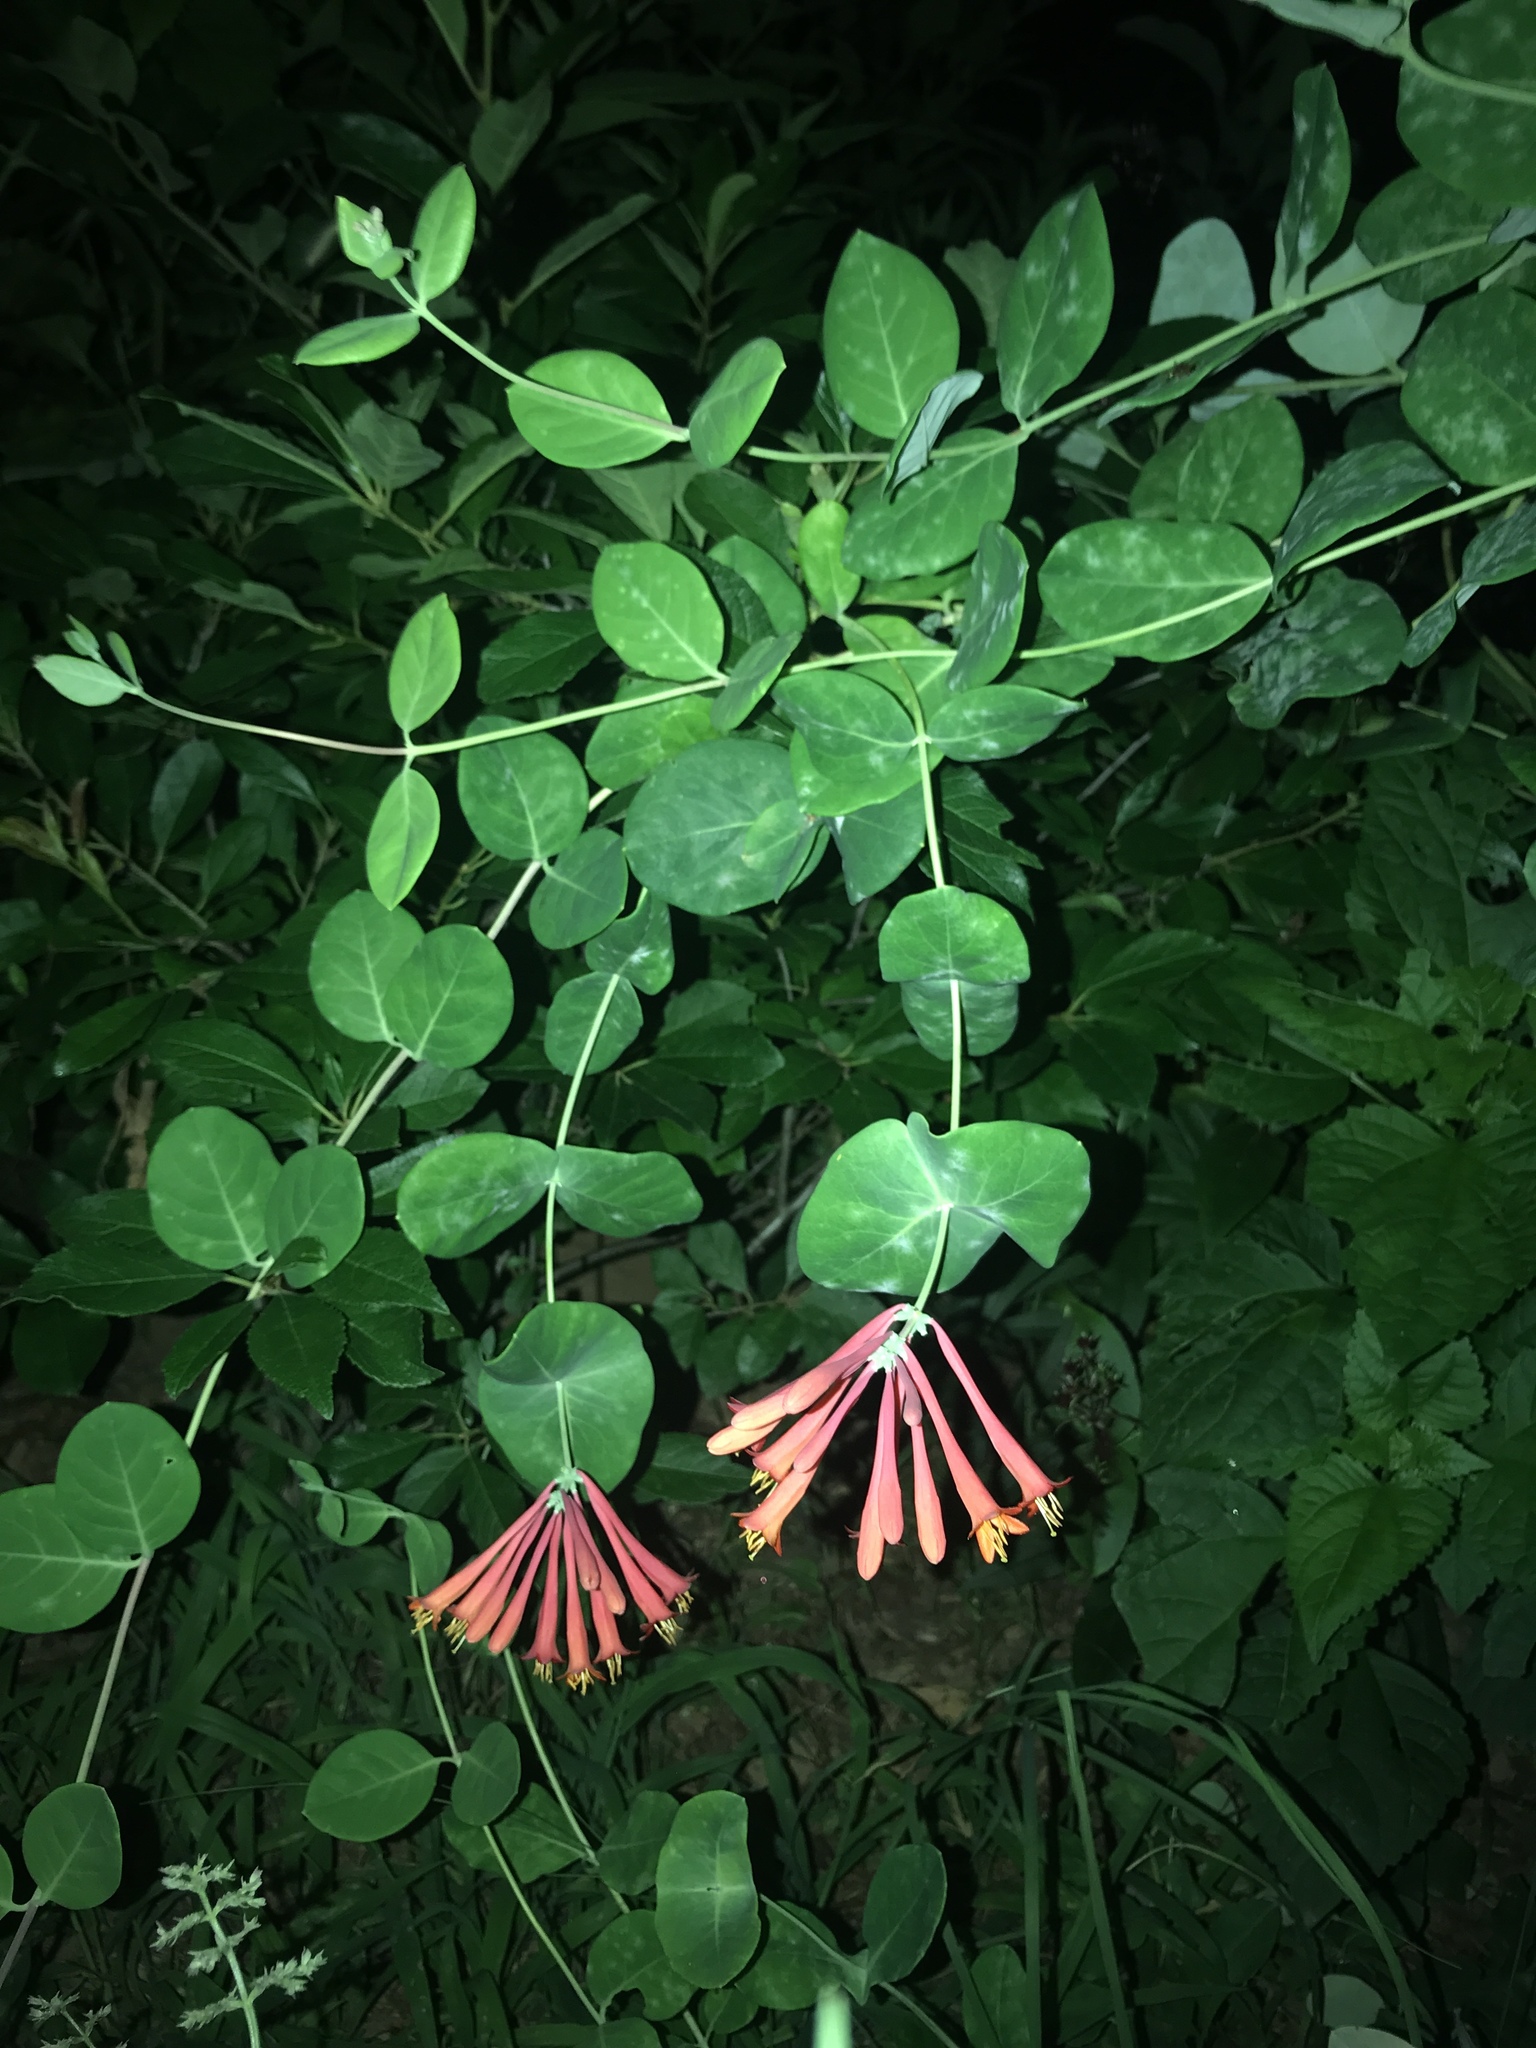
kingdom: Plantae
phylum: Tracheophyta
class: Magnoliopsida
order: Dipsacales
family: Caprifoliaceae
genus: Lonicera
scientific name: Lonicera sempervirens
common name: Coral honeysuckle
